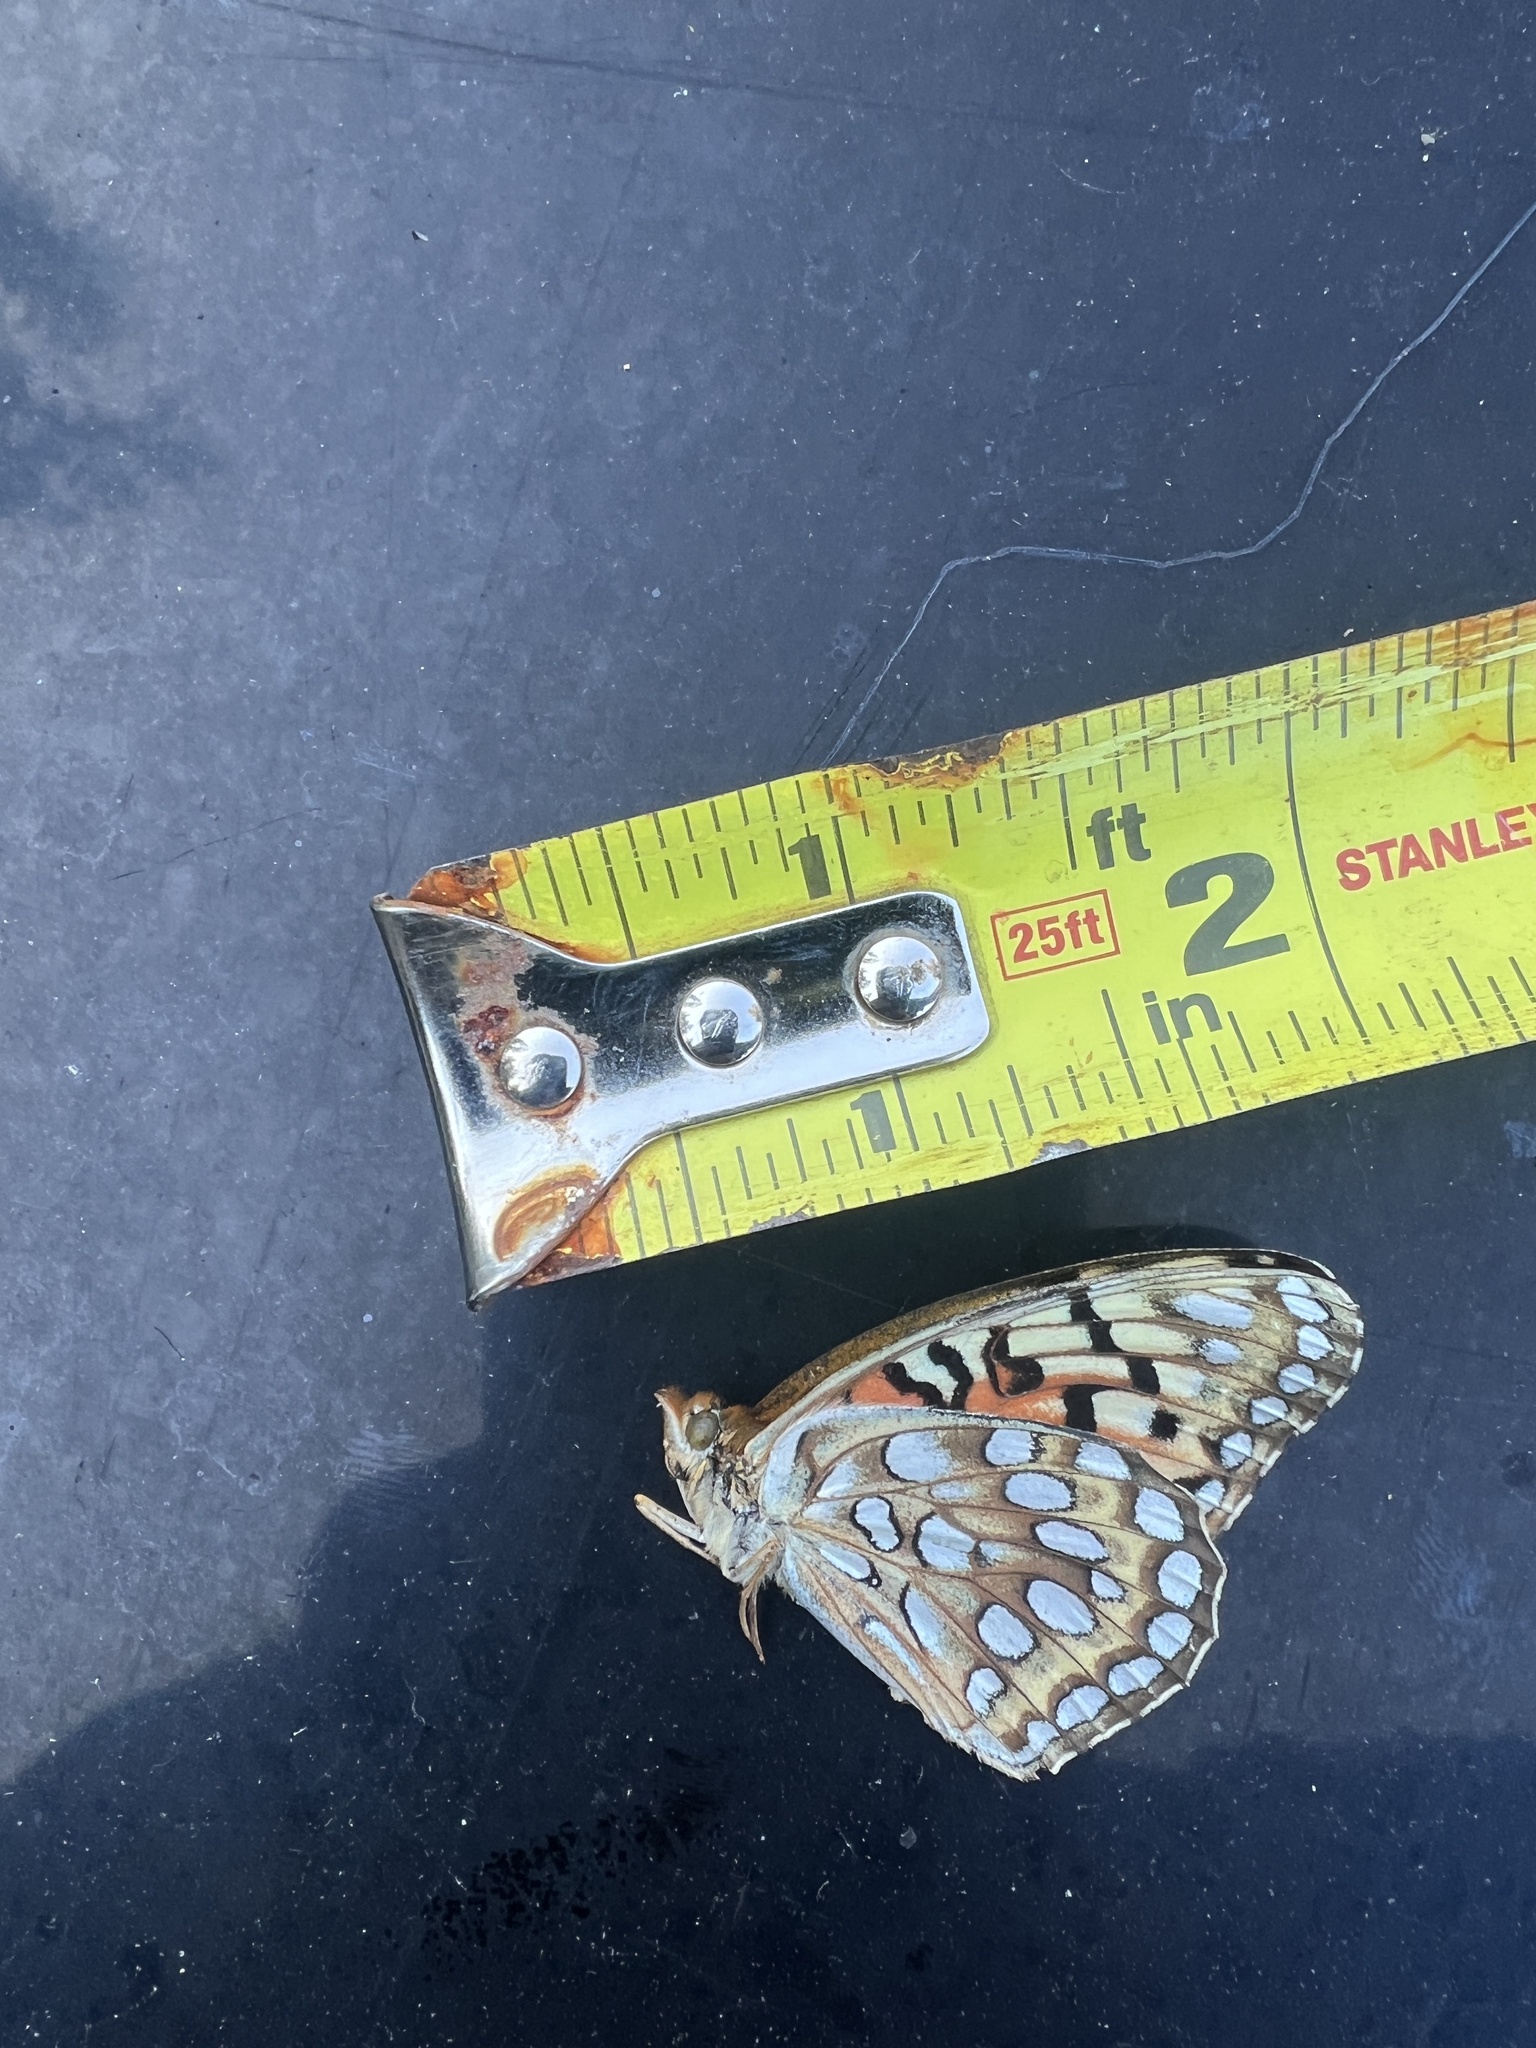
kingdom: Animalia
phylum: Arthropoda
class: Insecta
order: Lepidoptera
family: Nymphalidae
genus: Argynnis
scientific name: Argynnis coronis
